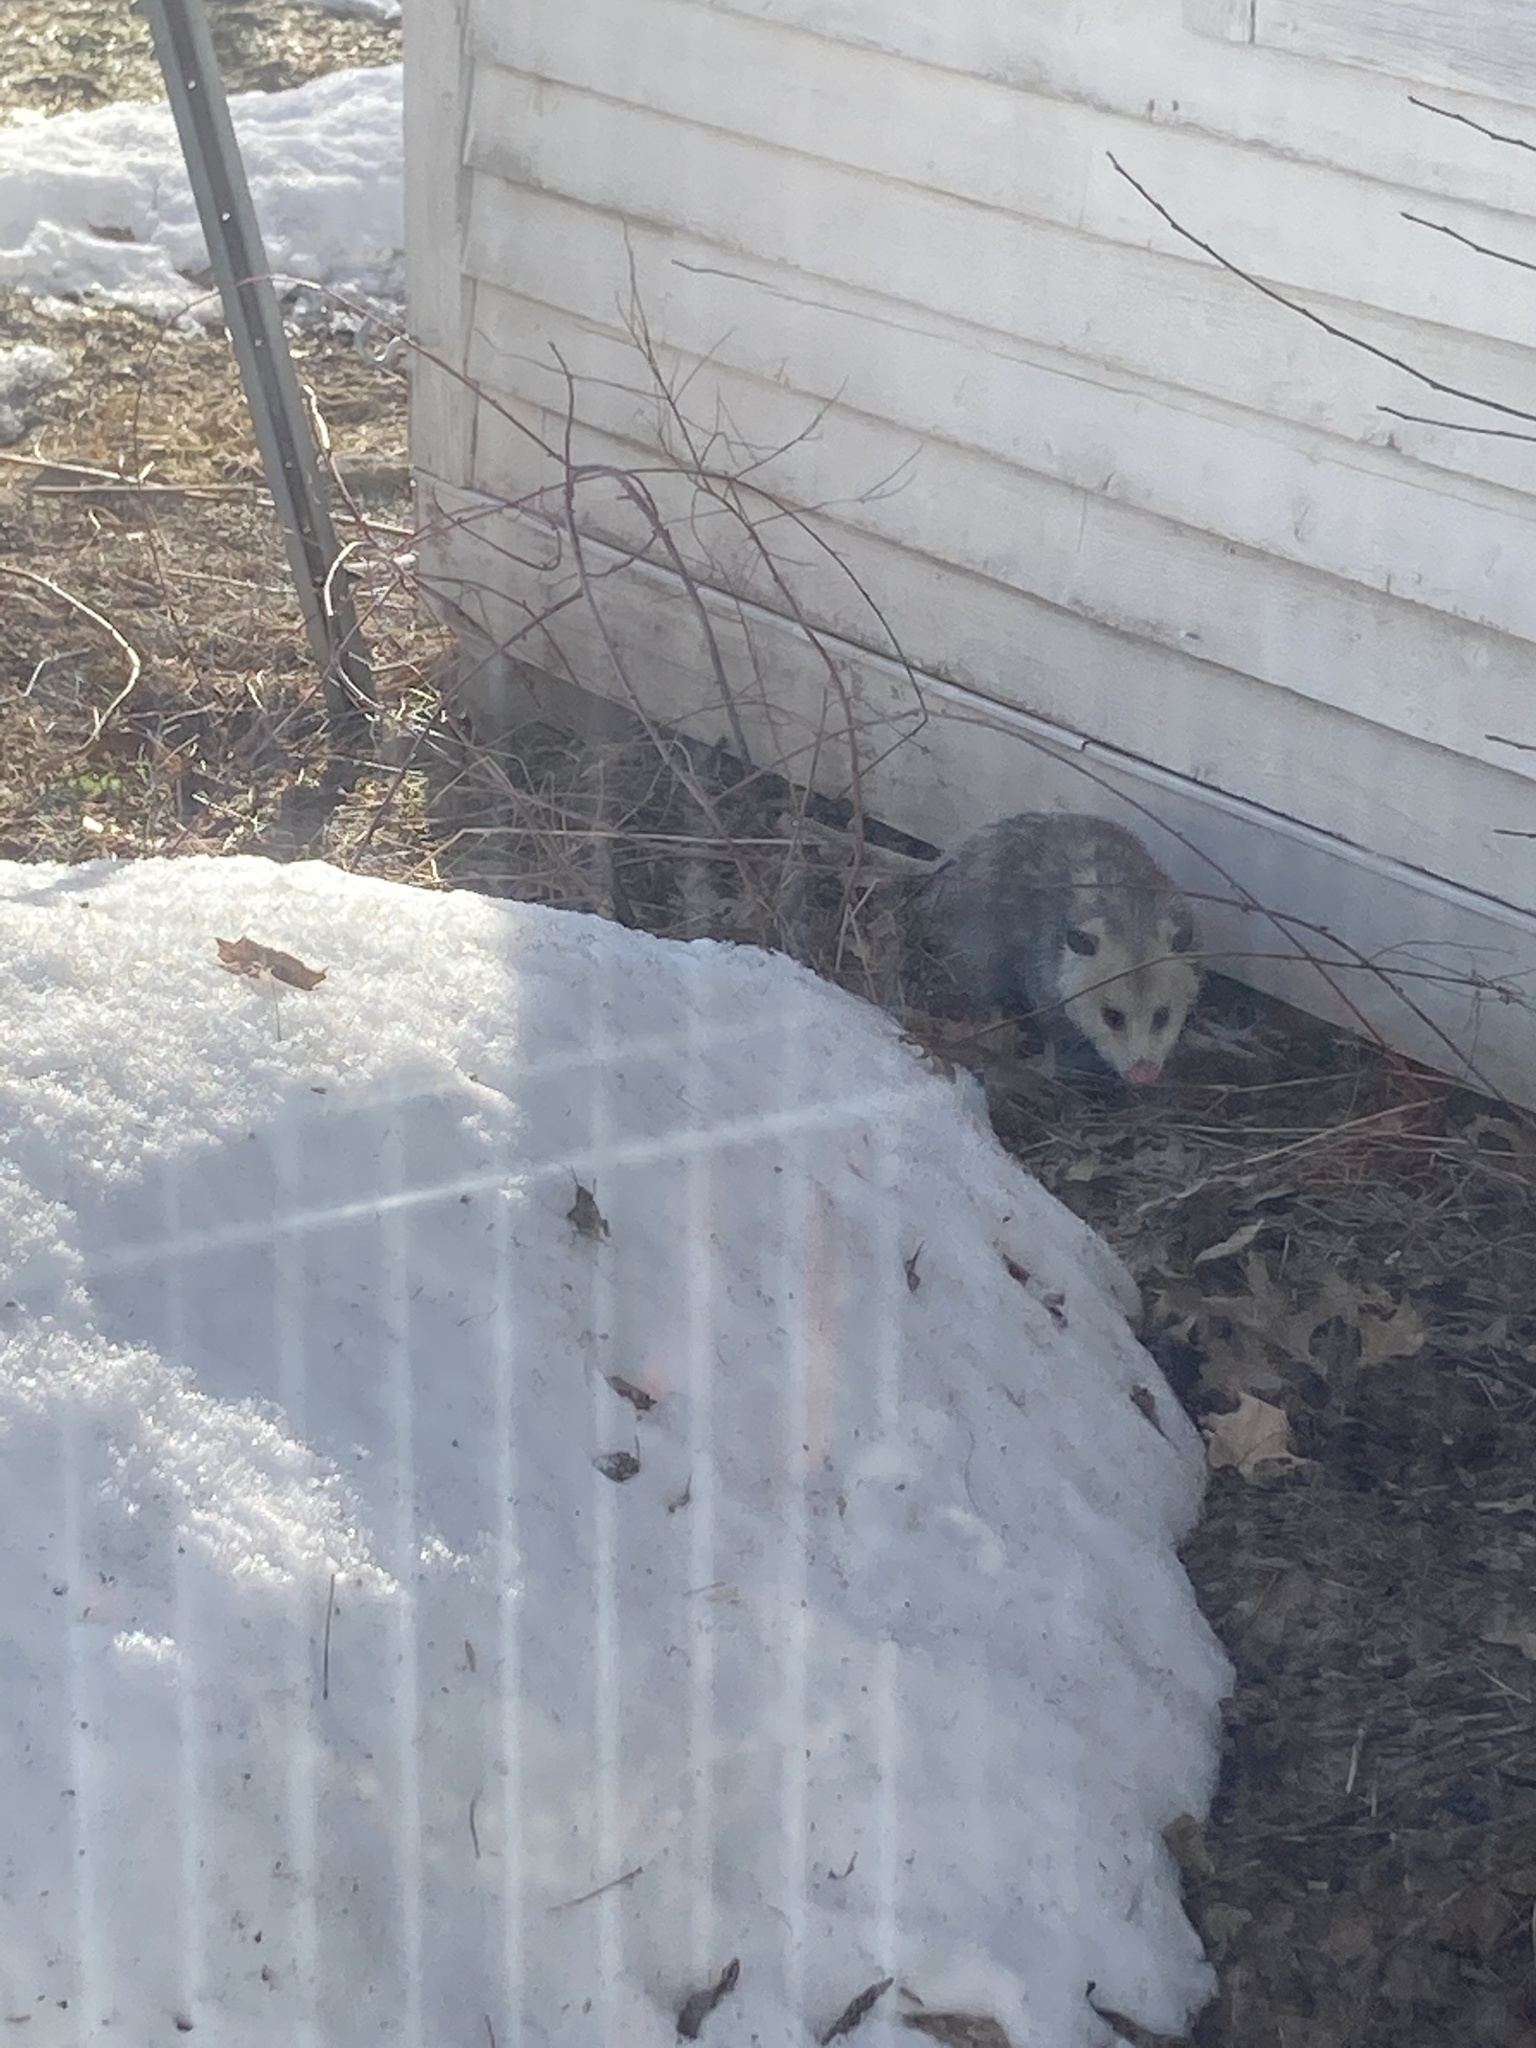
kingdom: Animalia
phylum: Chordata
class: Mammalia
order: Didelphimorphia
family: Didelphidae
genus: Didelphis
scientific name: Didelphis virginiana
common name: Virginia opossum
